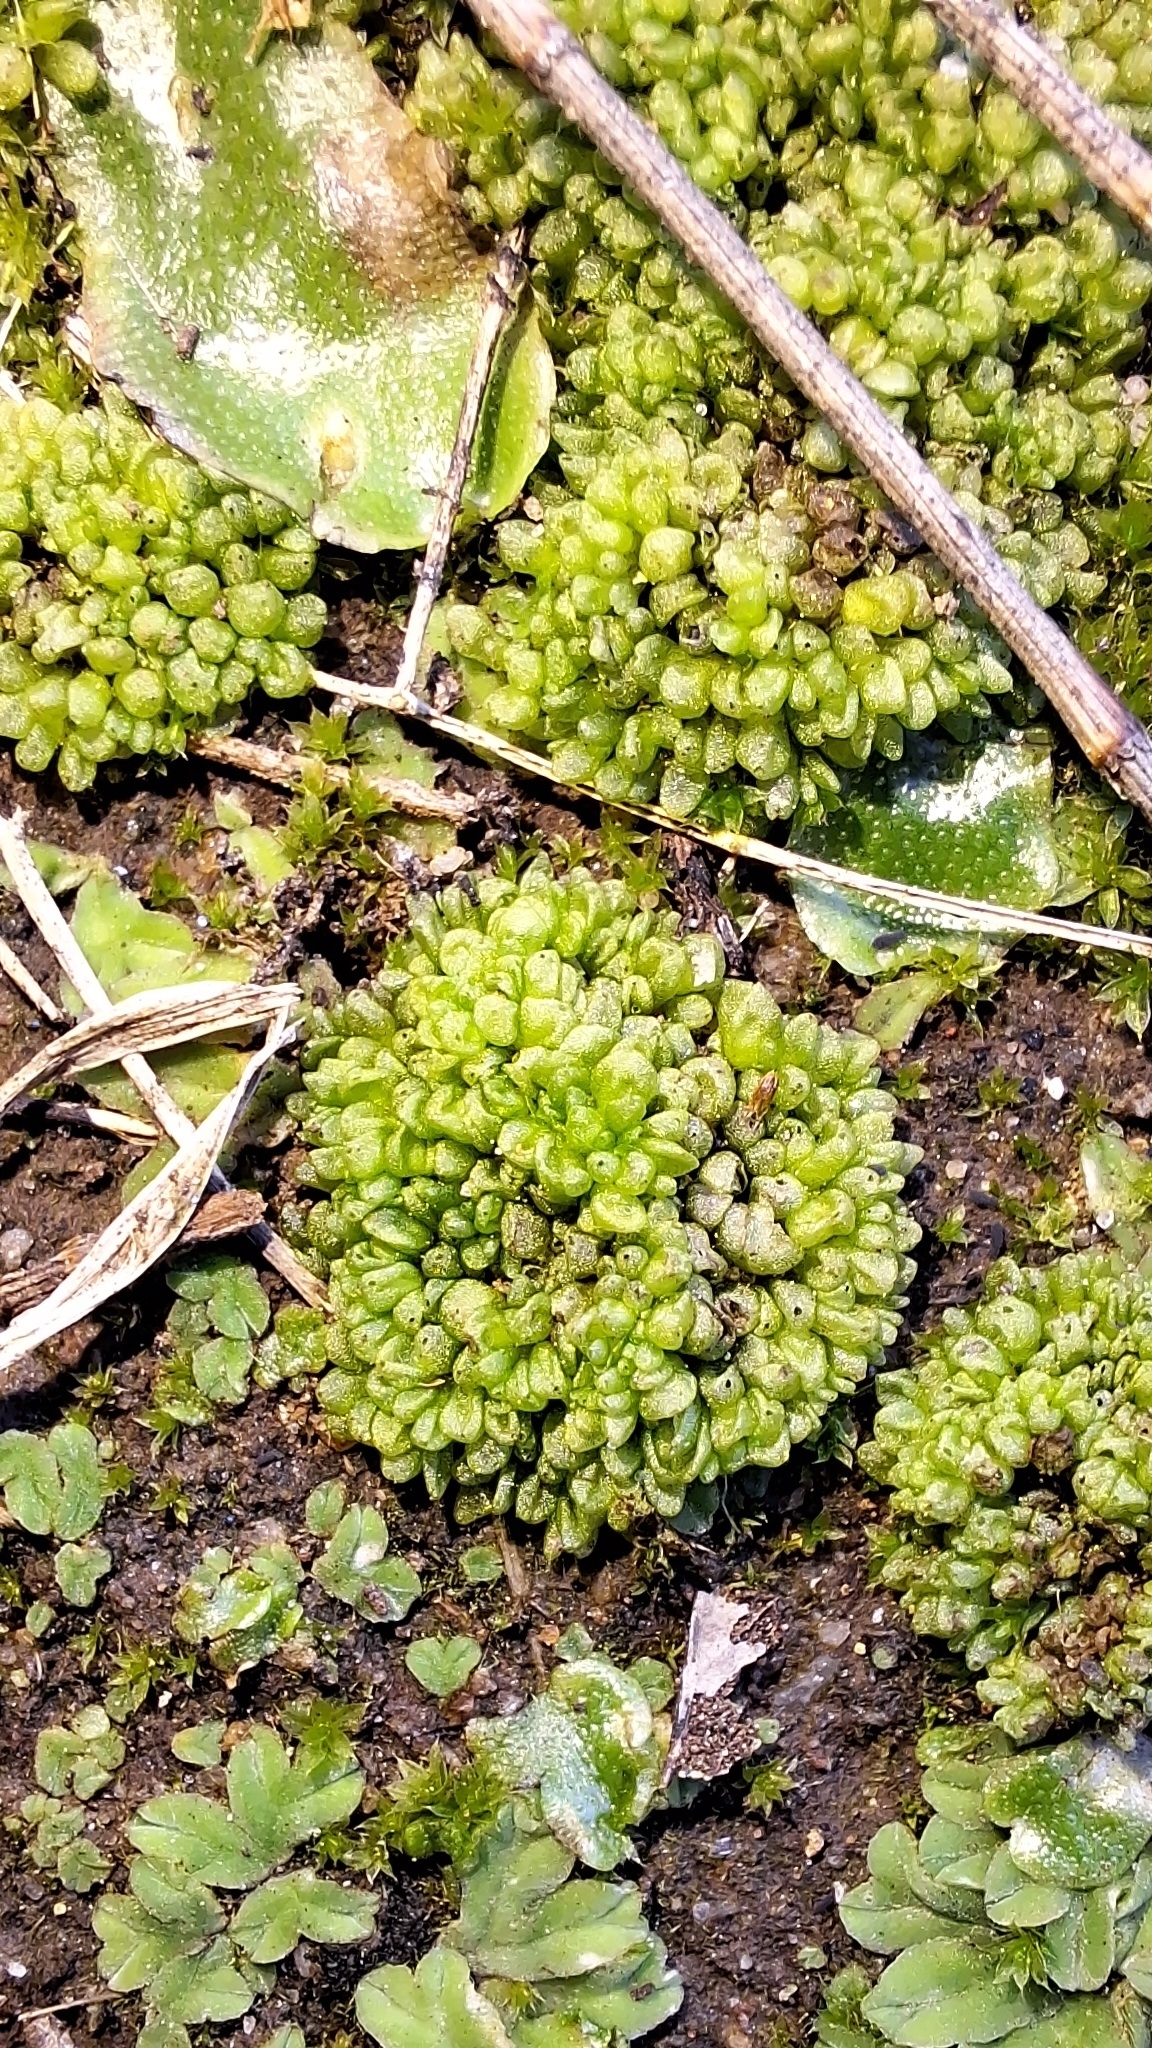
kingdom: Plantae
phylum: Marchantiophyta
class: Marchantiopsida
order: Sphaerocarpales
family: Sphaerocarpaceae
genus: Sphaerocarpos
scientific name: Sphaerocarpos texanus
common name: Texas balloonwort
